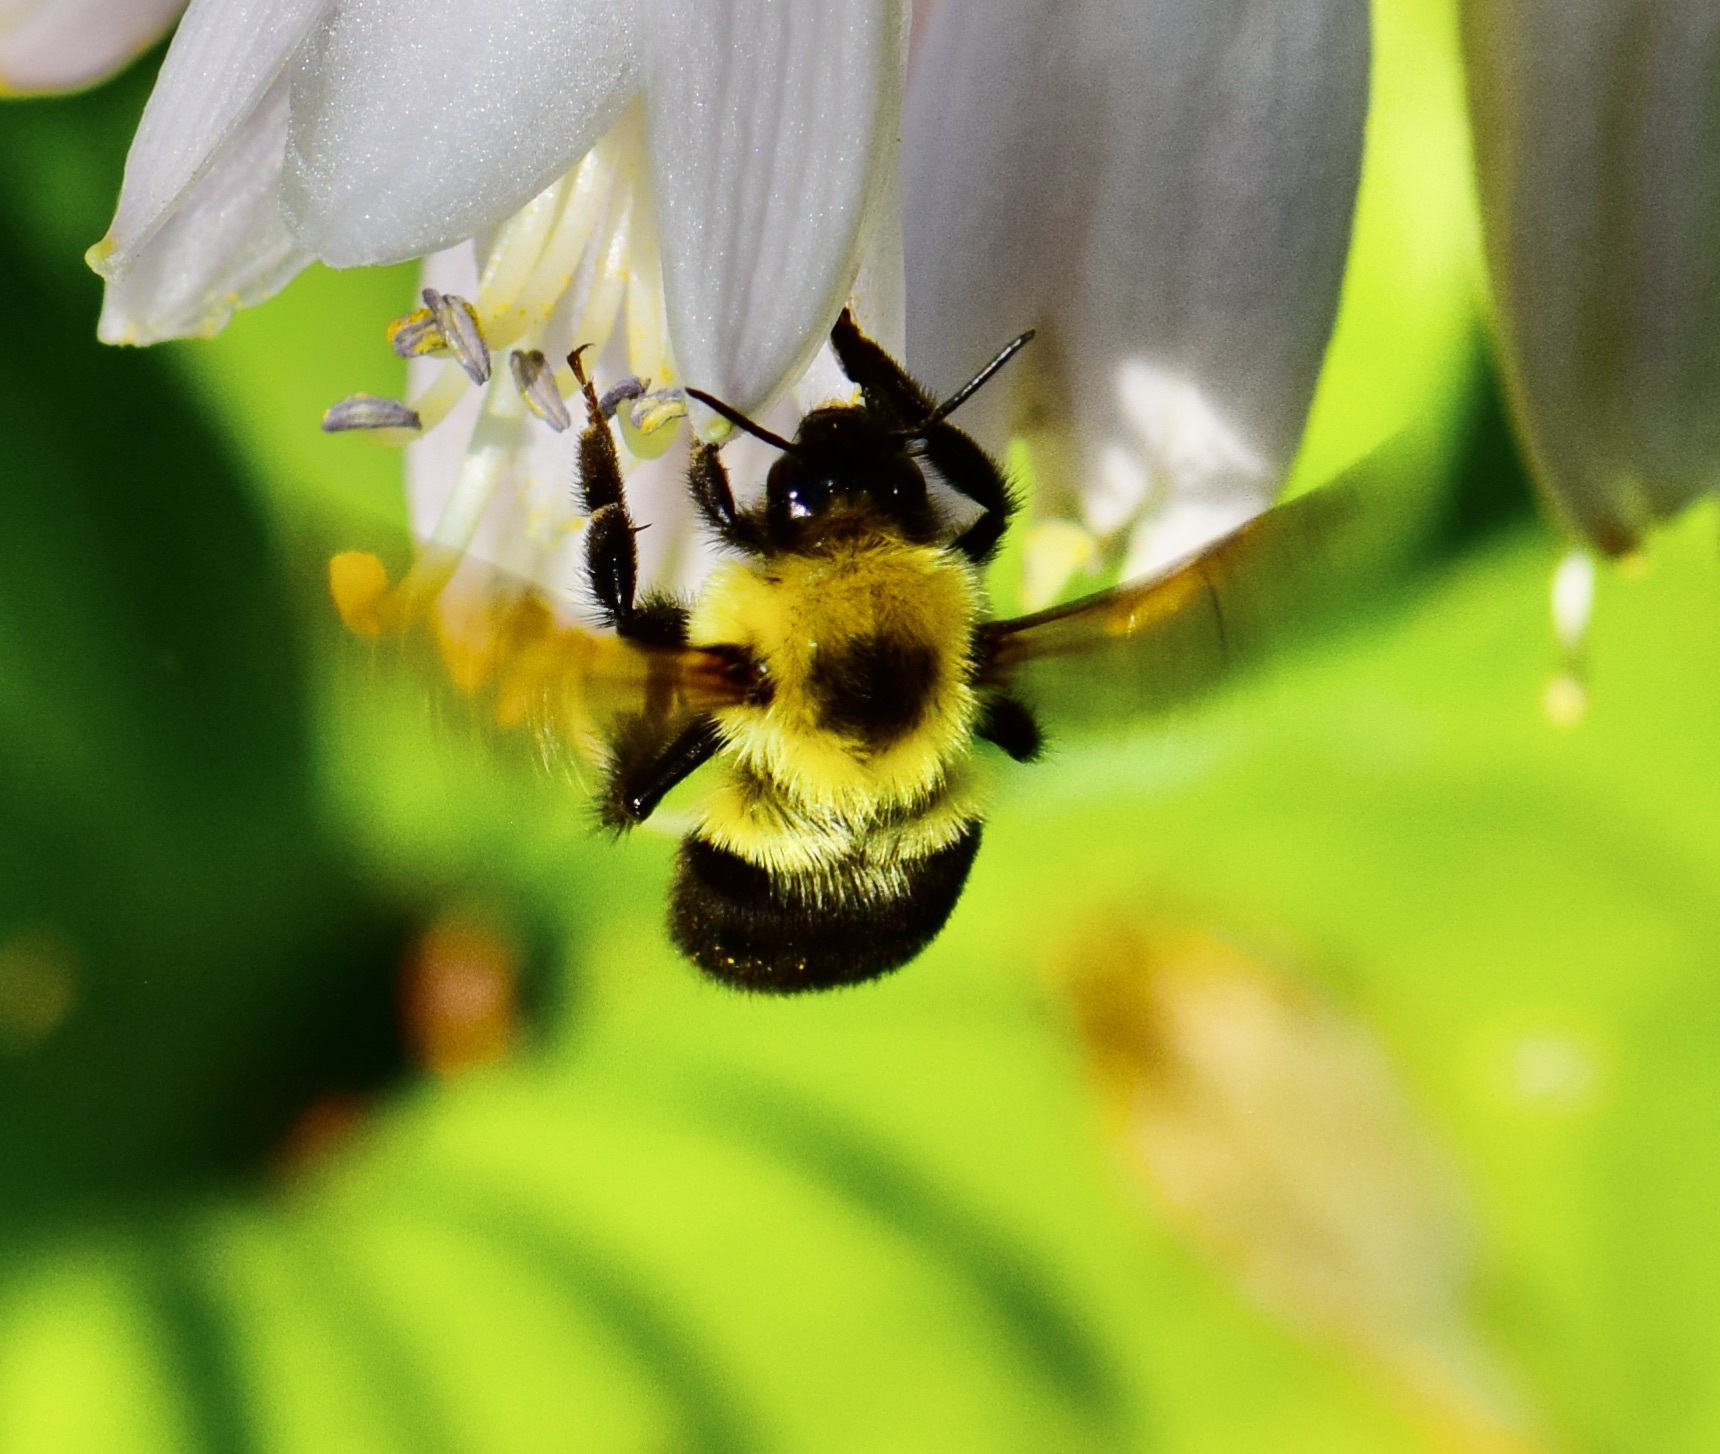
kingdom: Animalia
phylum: Arthropoda
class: Insecta
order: Hymenoptera
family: Apidae
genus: Bombus
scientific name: Bombus bimaculatus
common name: Two-spotted bumble bee
